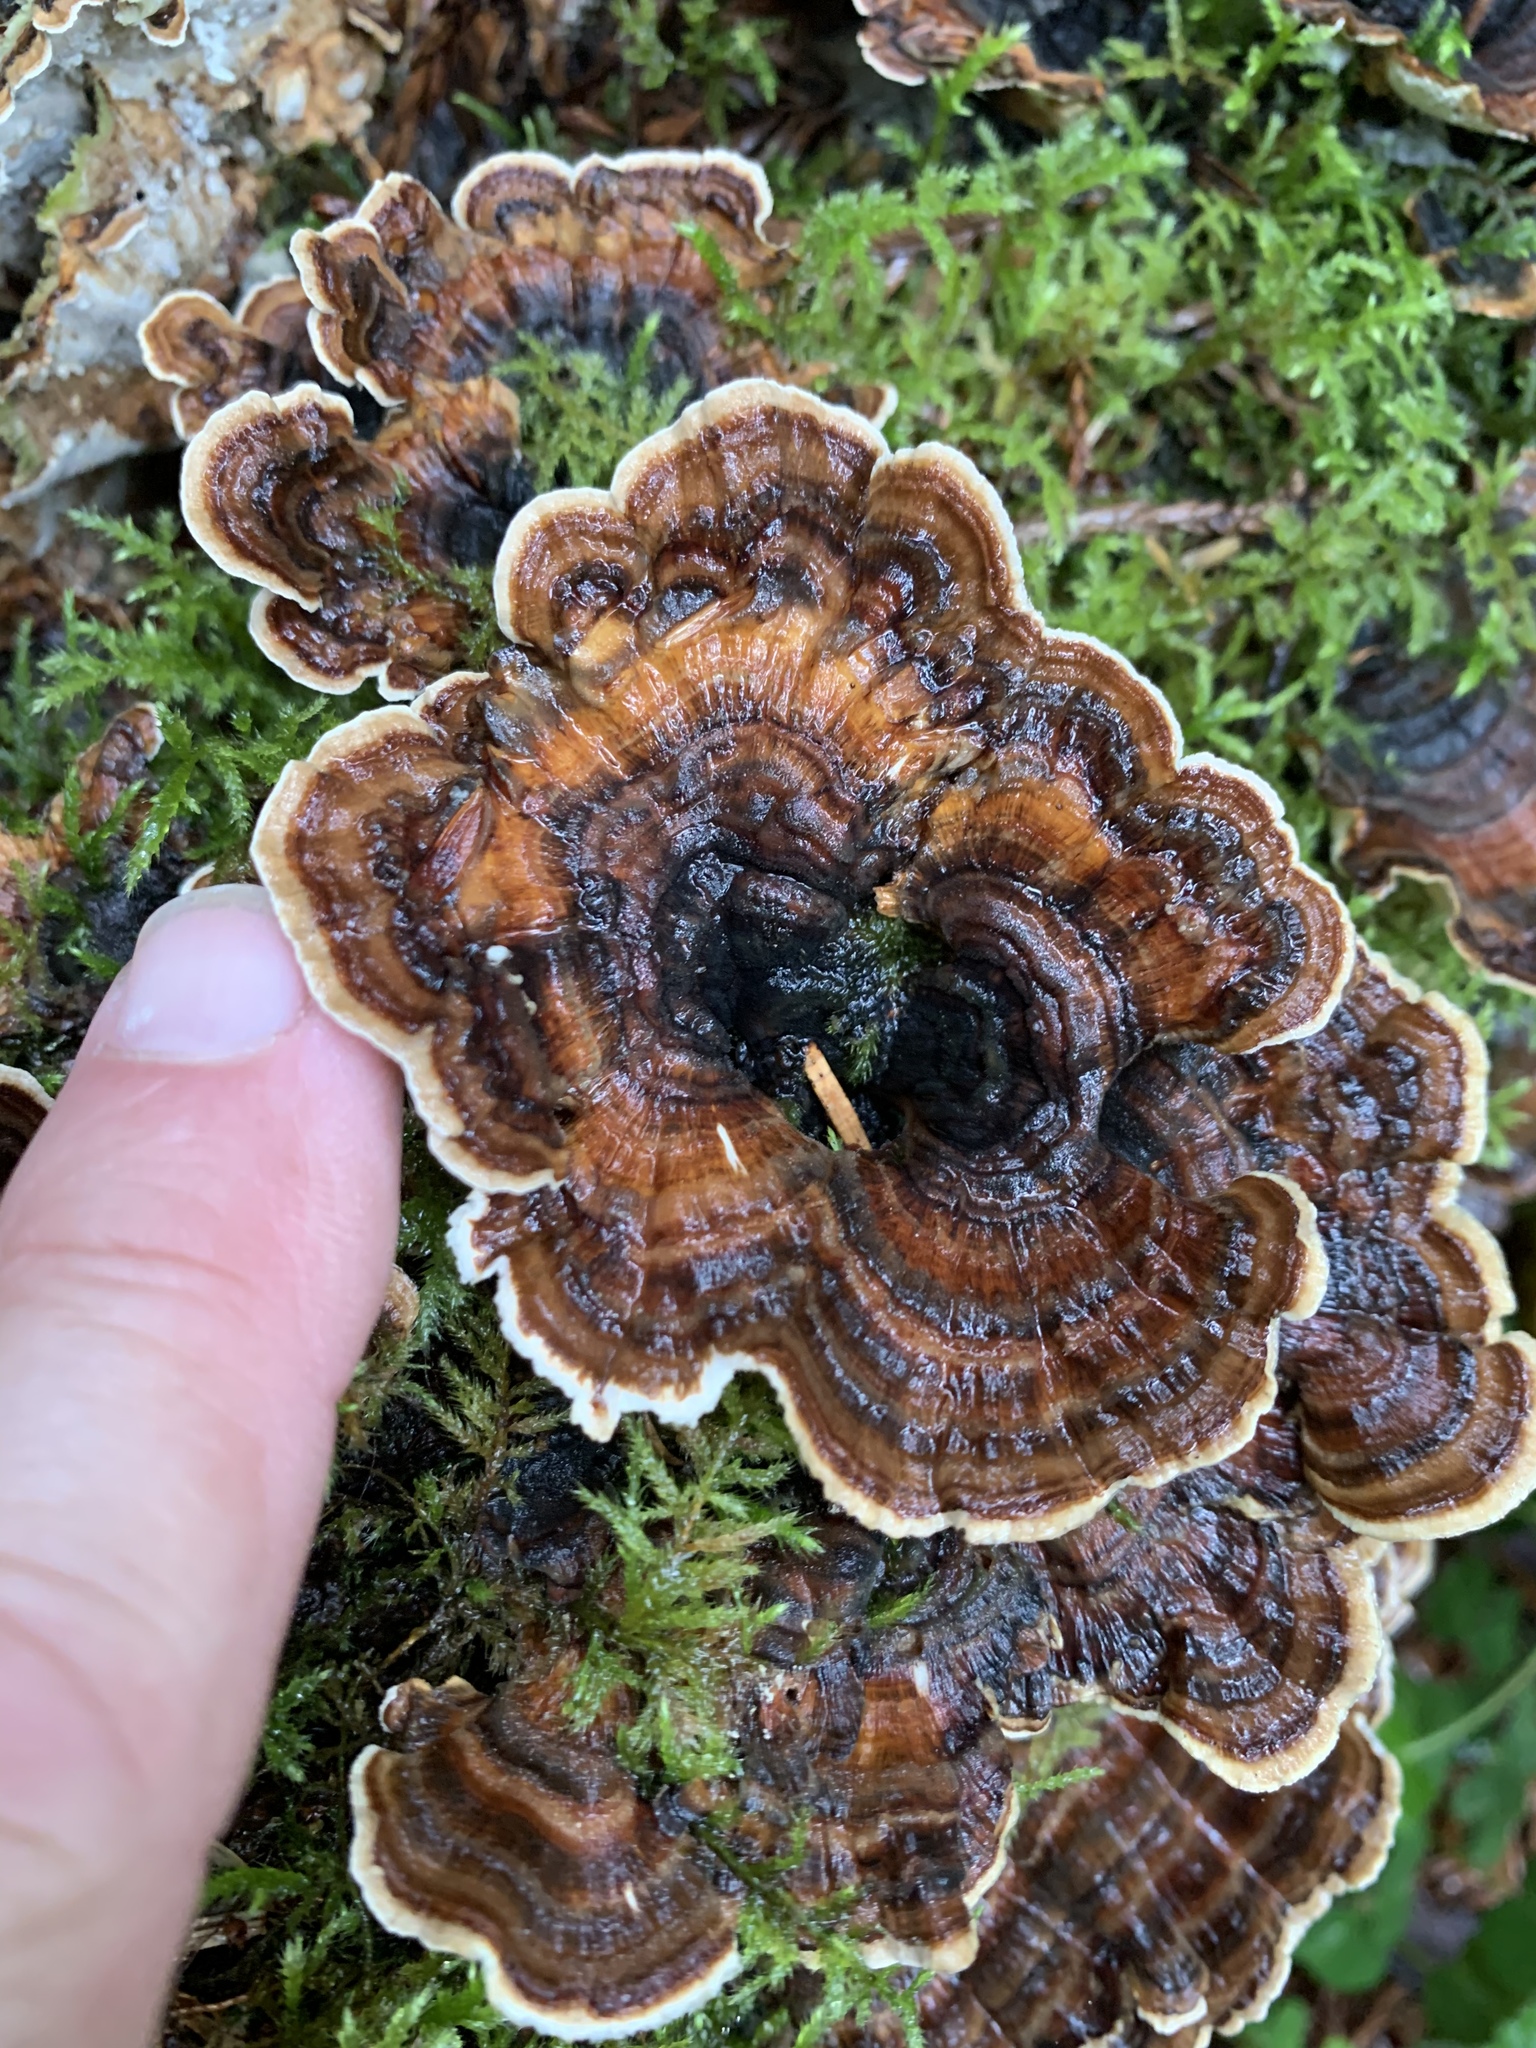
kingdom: Fungi
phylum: Basidiomycota
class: Agaricomycetes
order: Polyporales
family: Polyporaceae
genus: Trametes
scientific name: Trametes versicolor
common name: Turkeytail
